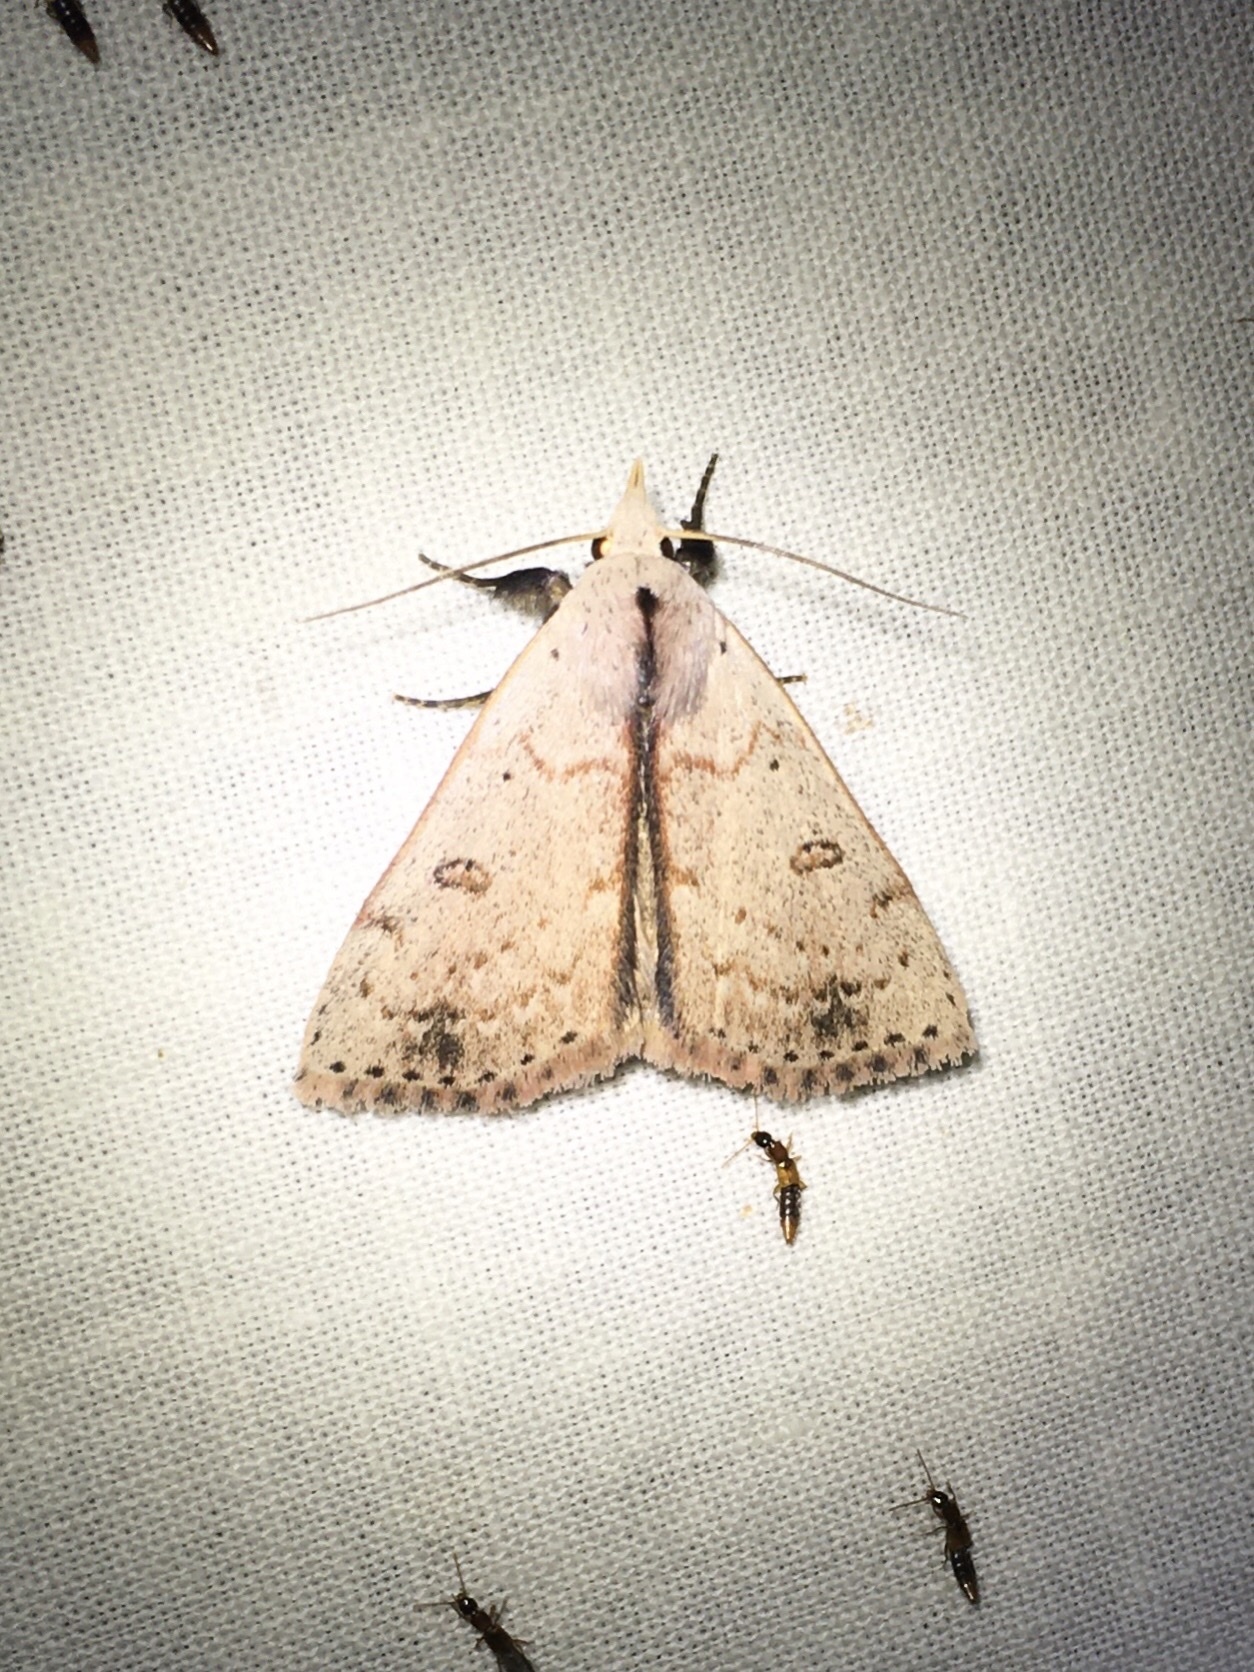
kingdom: Animalia
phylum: Arthropoda
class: Insecta
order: Lepidoptera
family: Erebidae
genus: Scolecocampa
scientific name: Scolecocampa liburna
